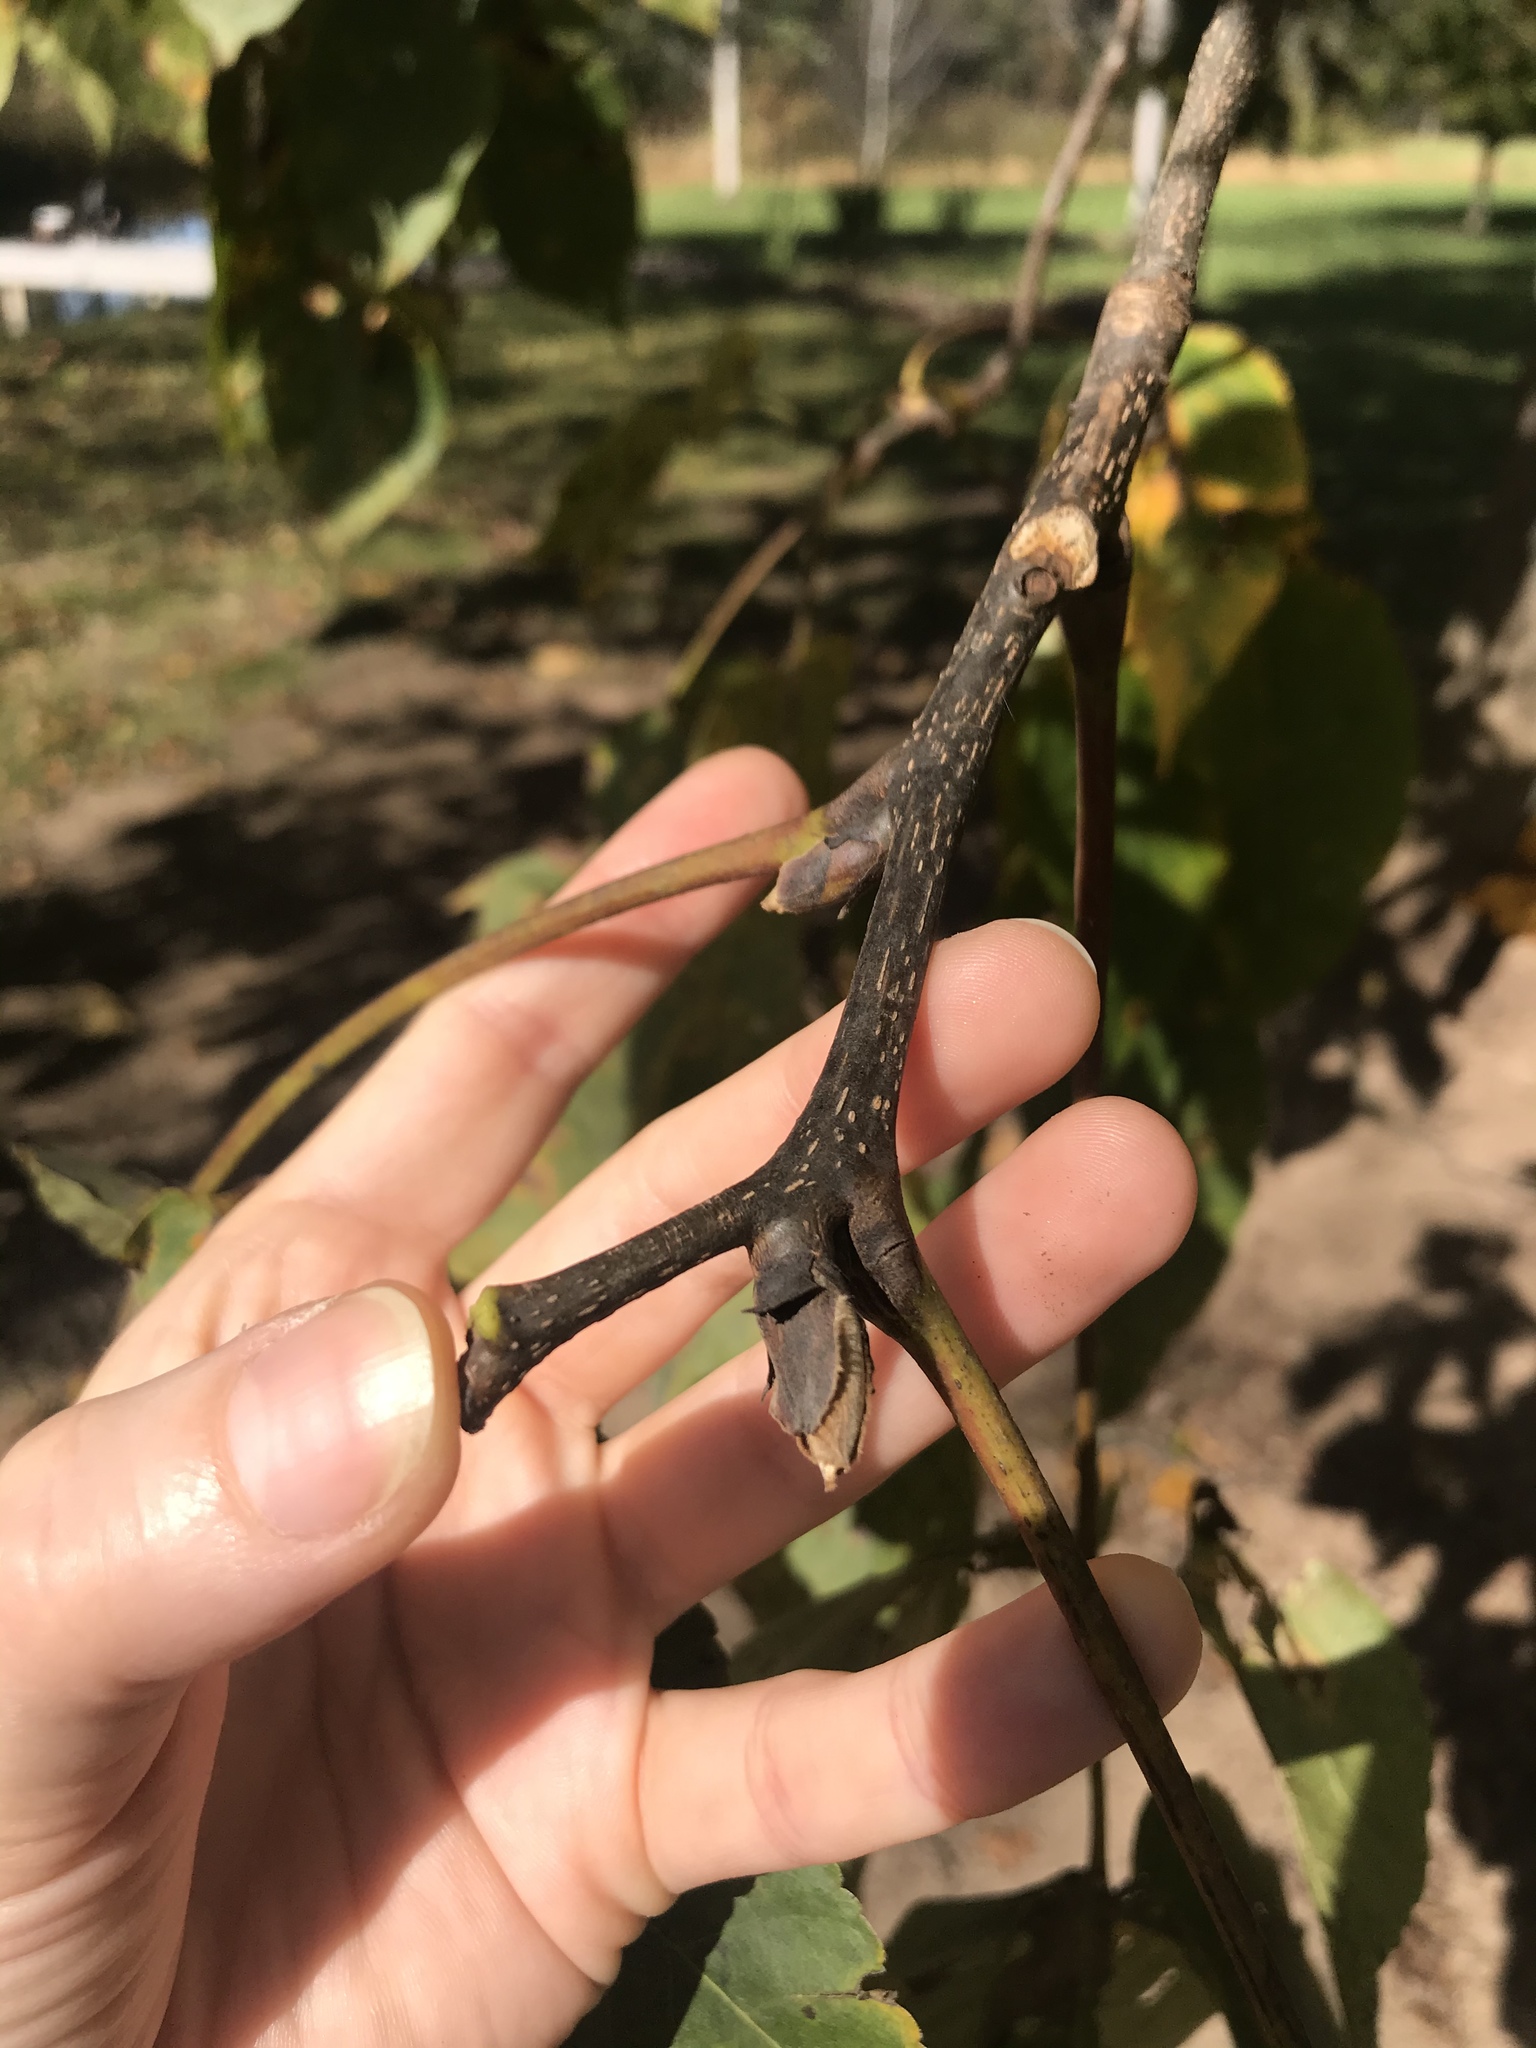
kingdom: Plantae
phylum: Tracheophyta
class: Magnoliopsida
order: Fagales
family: Juglandaceae
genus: Carya
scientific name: Carya ovata
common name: Shagbark hickory
